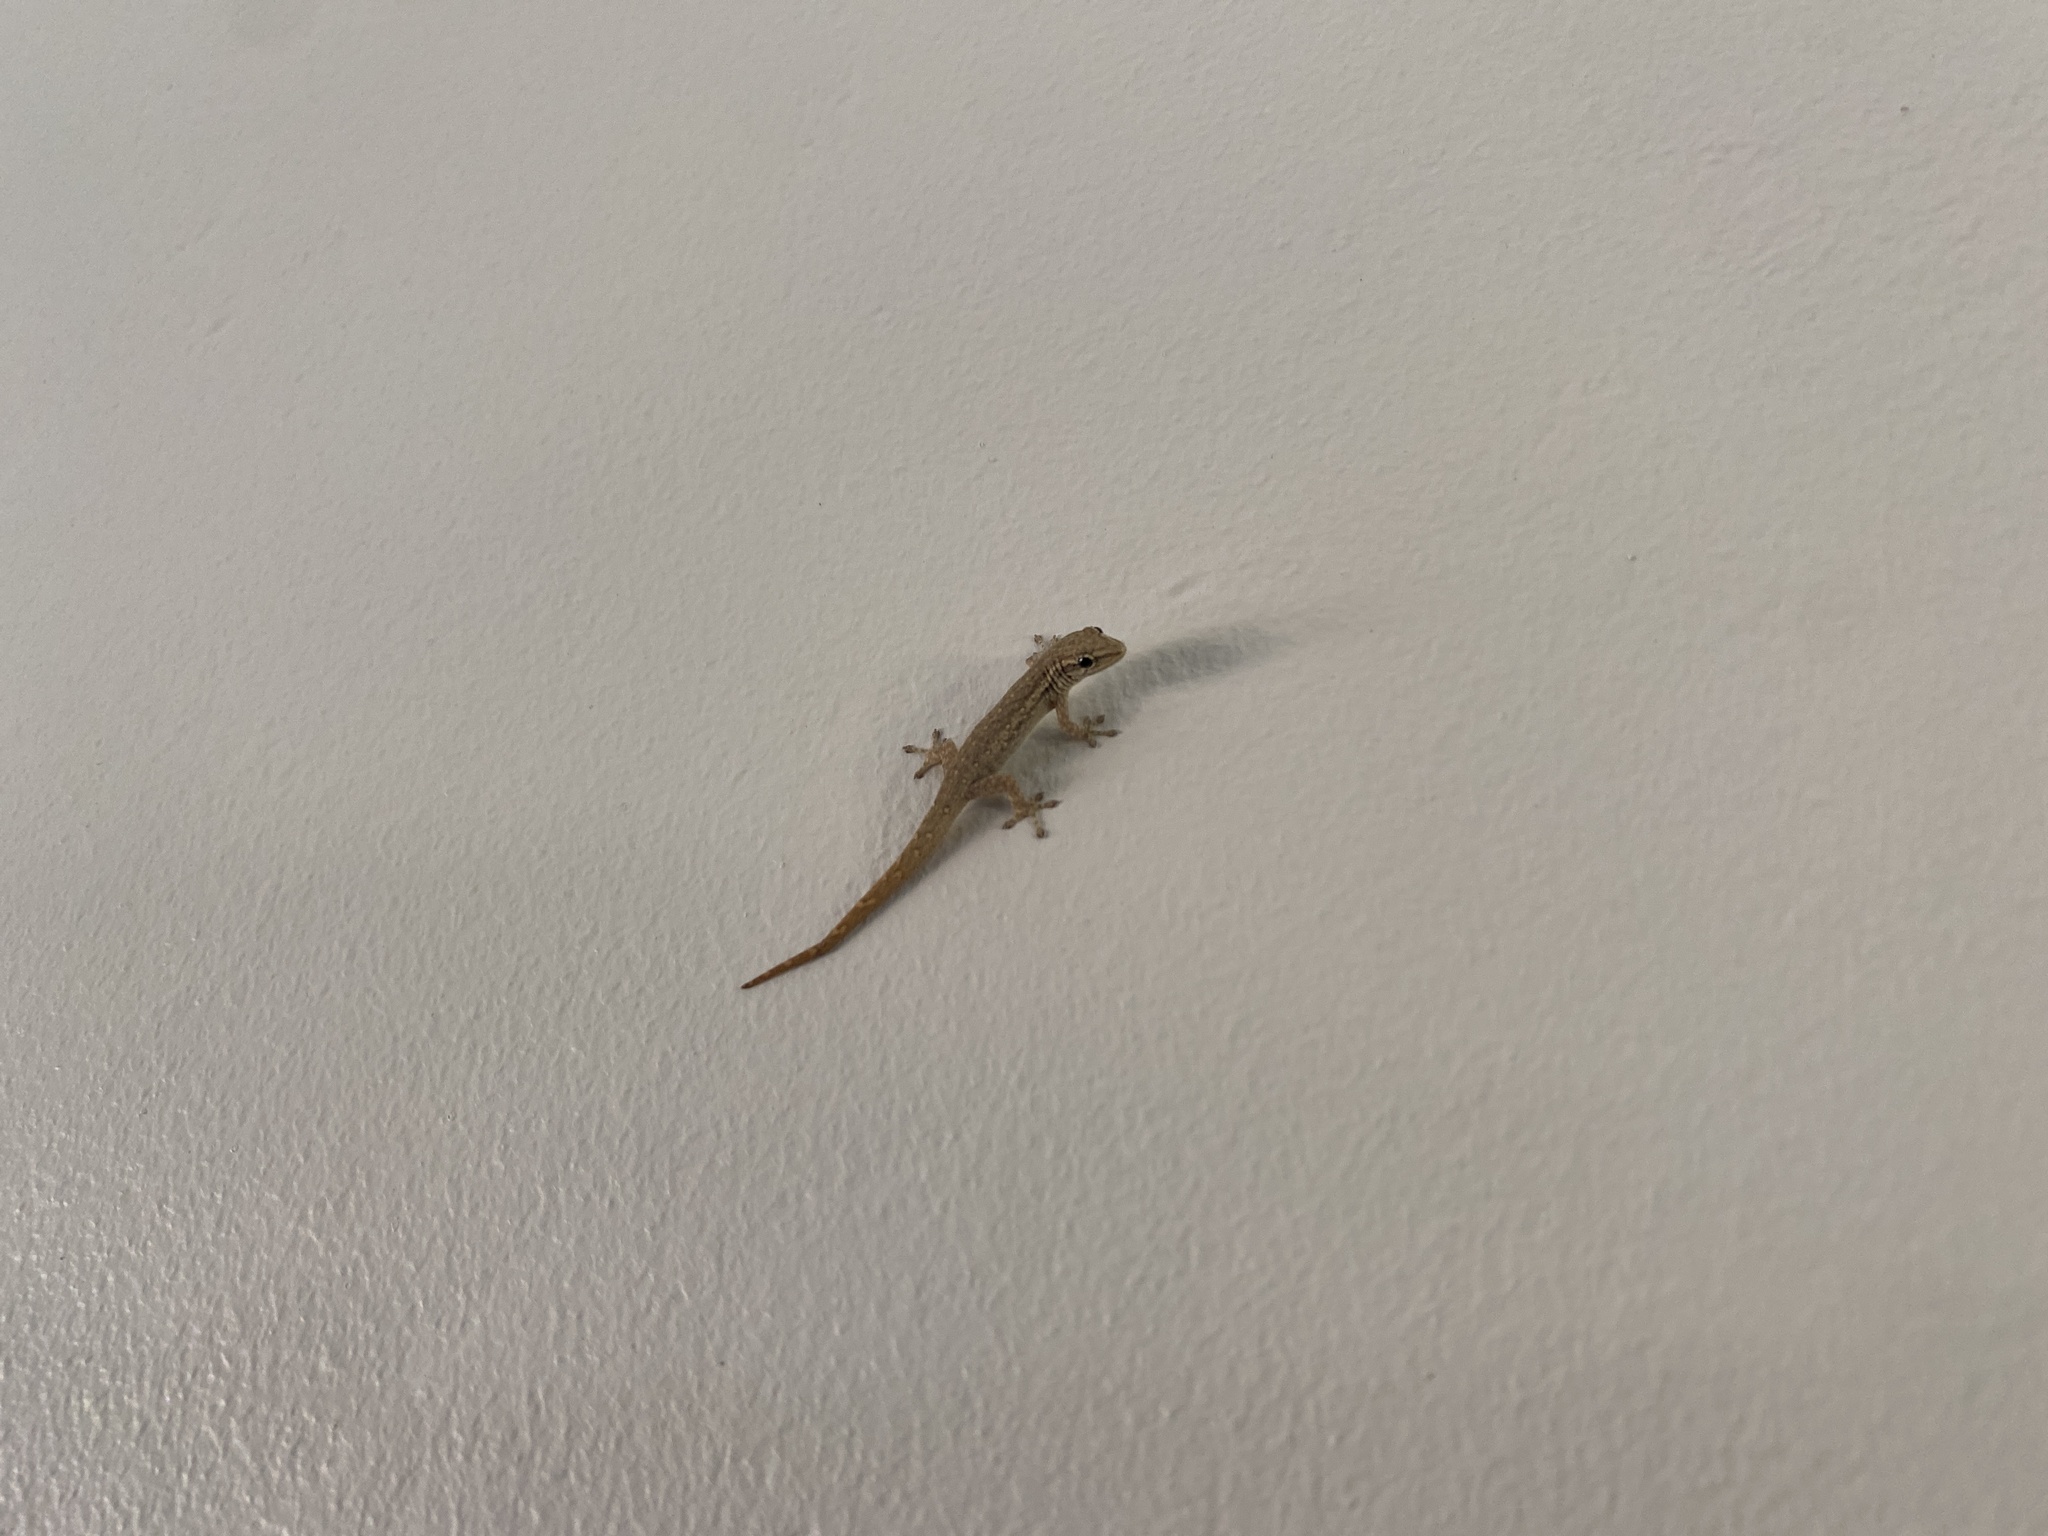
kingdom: Animalia
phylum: Chordata
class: Squamata
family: Gekkonidae
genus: Lygodactylus
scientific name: Lygodactylus capensis
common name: Cape dwarf gecko
